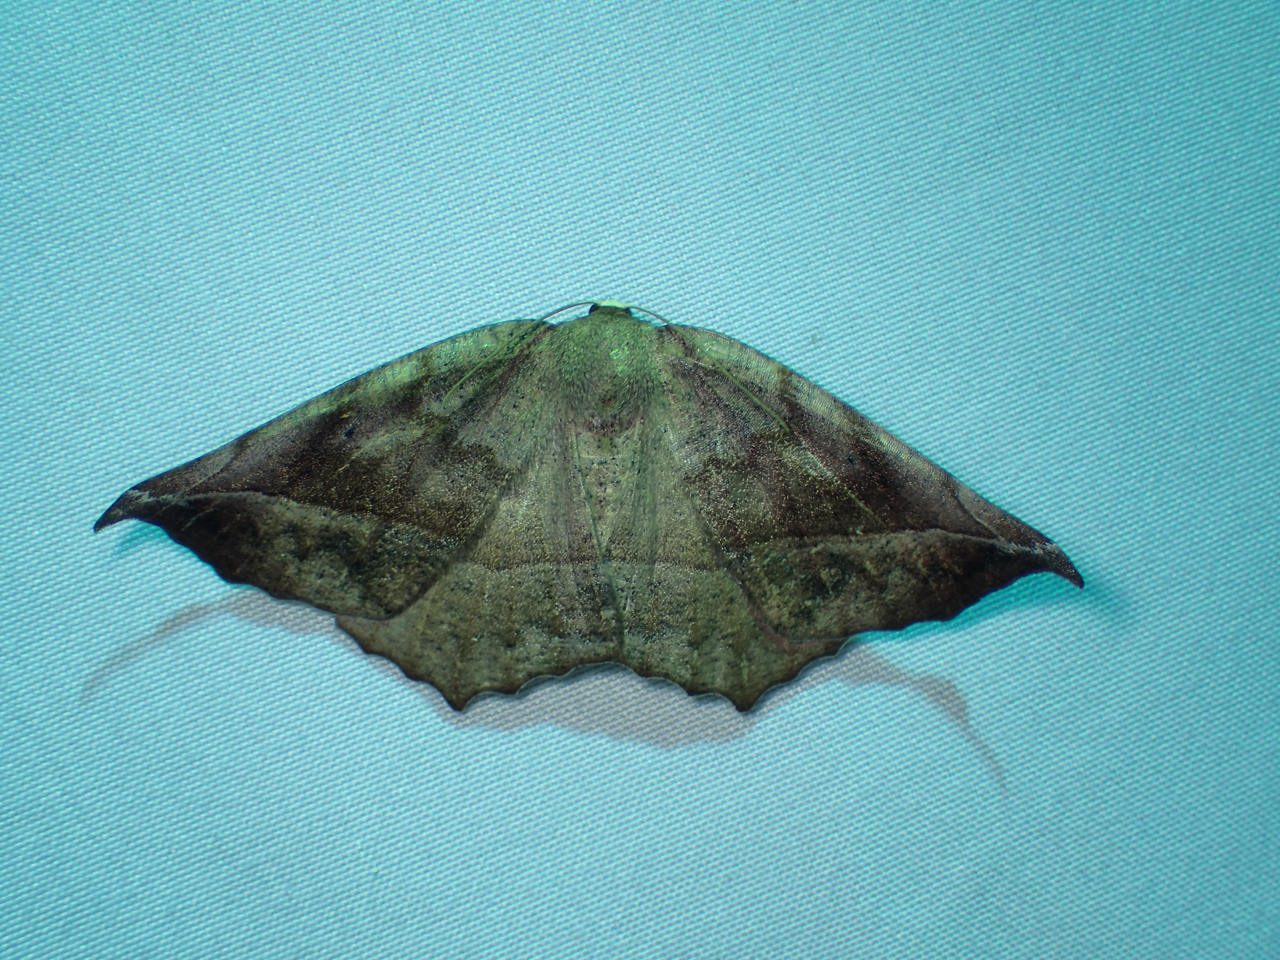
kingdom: Animalia
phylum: Arthropoda
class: Insecta
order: Lepidoptera
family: Geometridae
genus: Eutrapela
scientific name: Eutrapela clemataria
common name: Curved-toothed geometer
